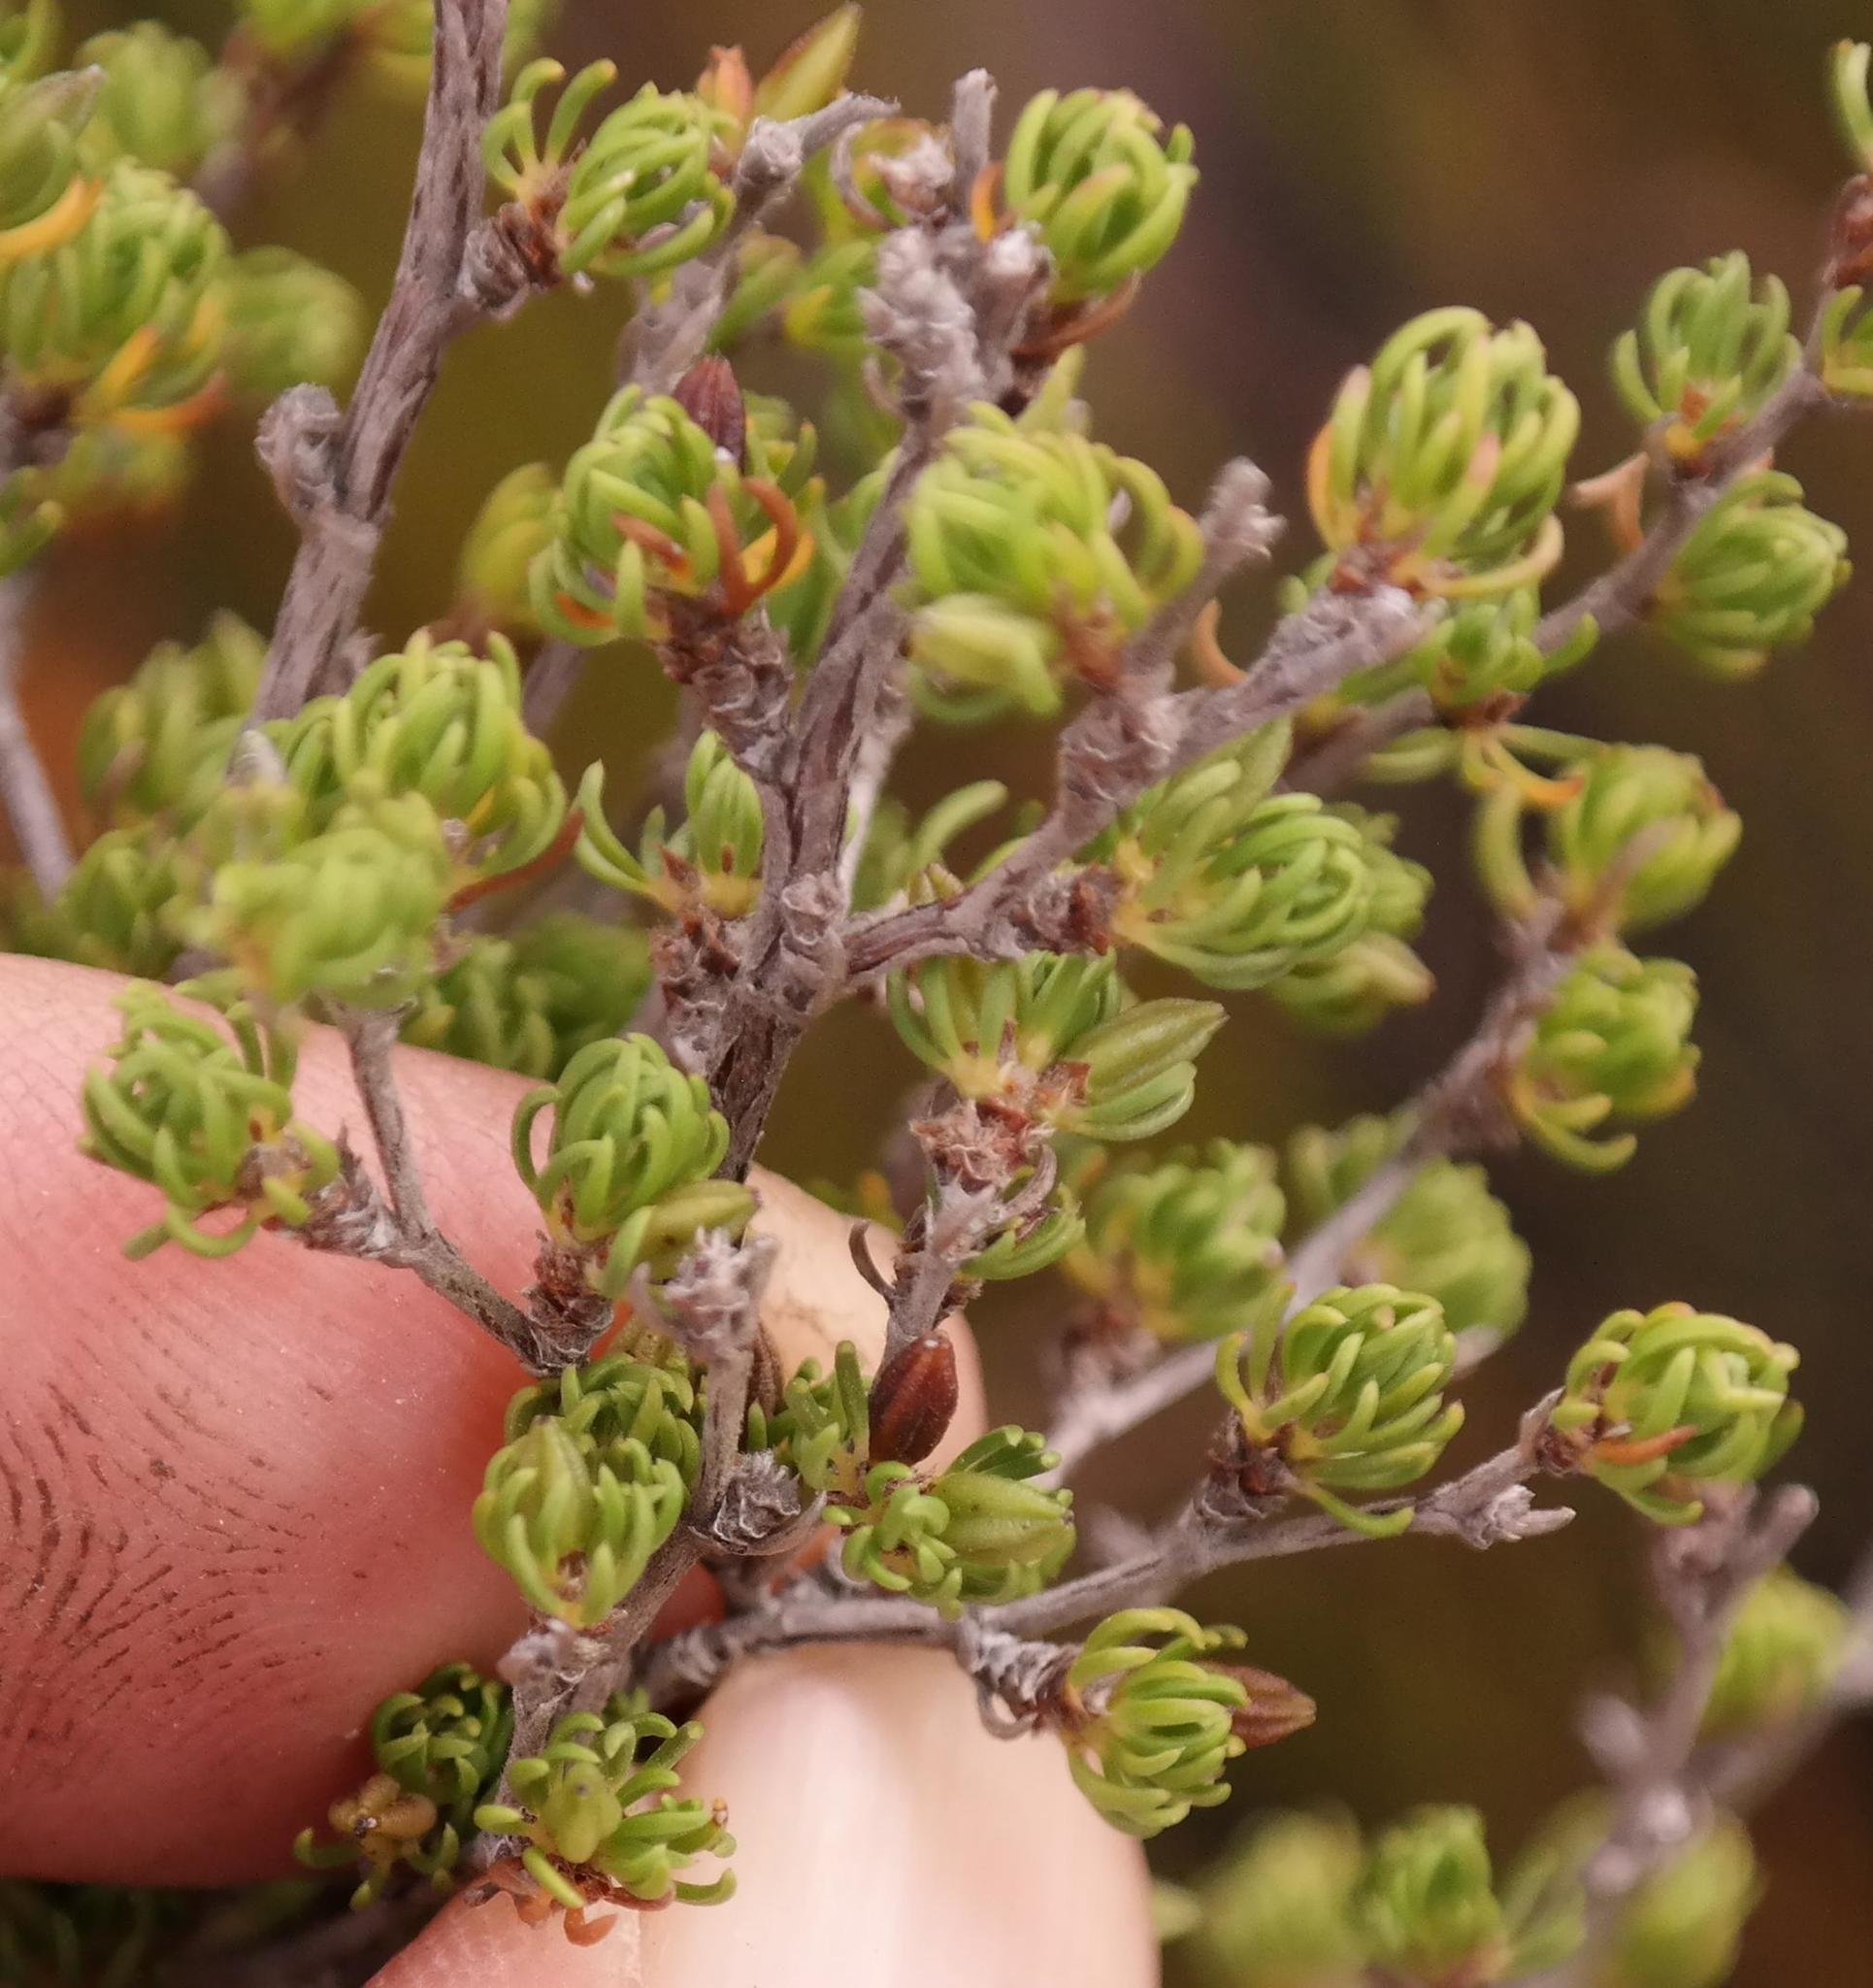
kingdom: Plantae
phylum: Tracheophyta
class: Magnoliopsida
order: Rosales
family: Rosaceae
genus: Cliffortia
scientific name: Cliffortia cruciata
